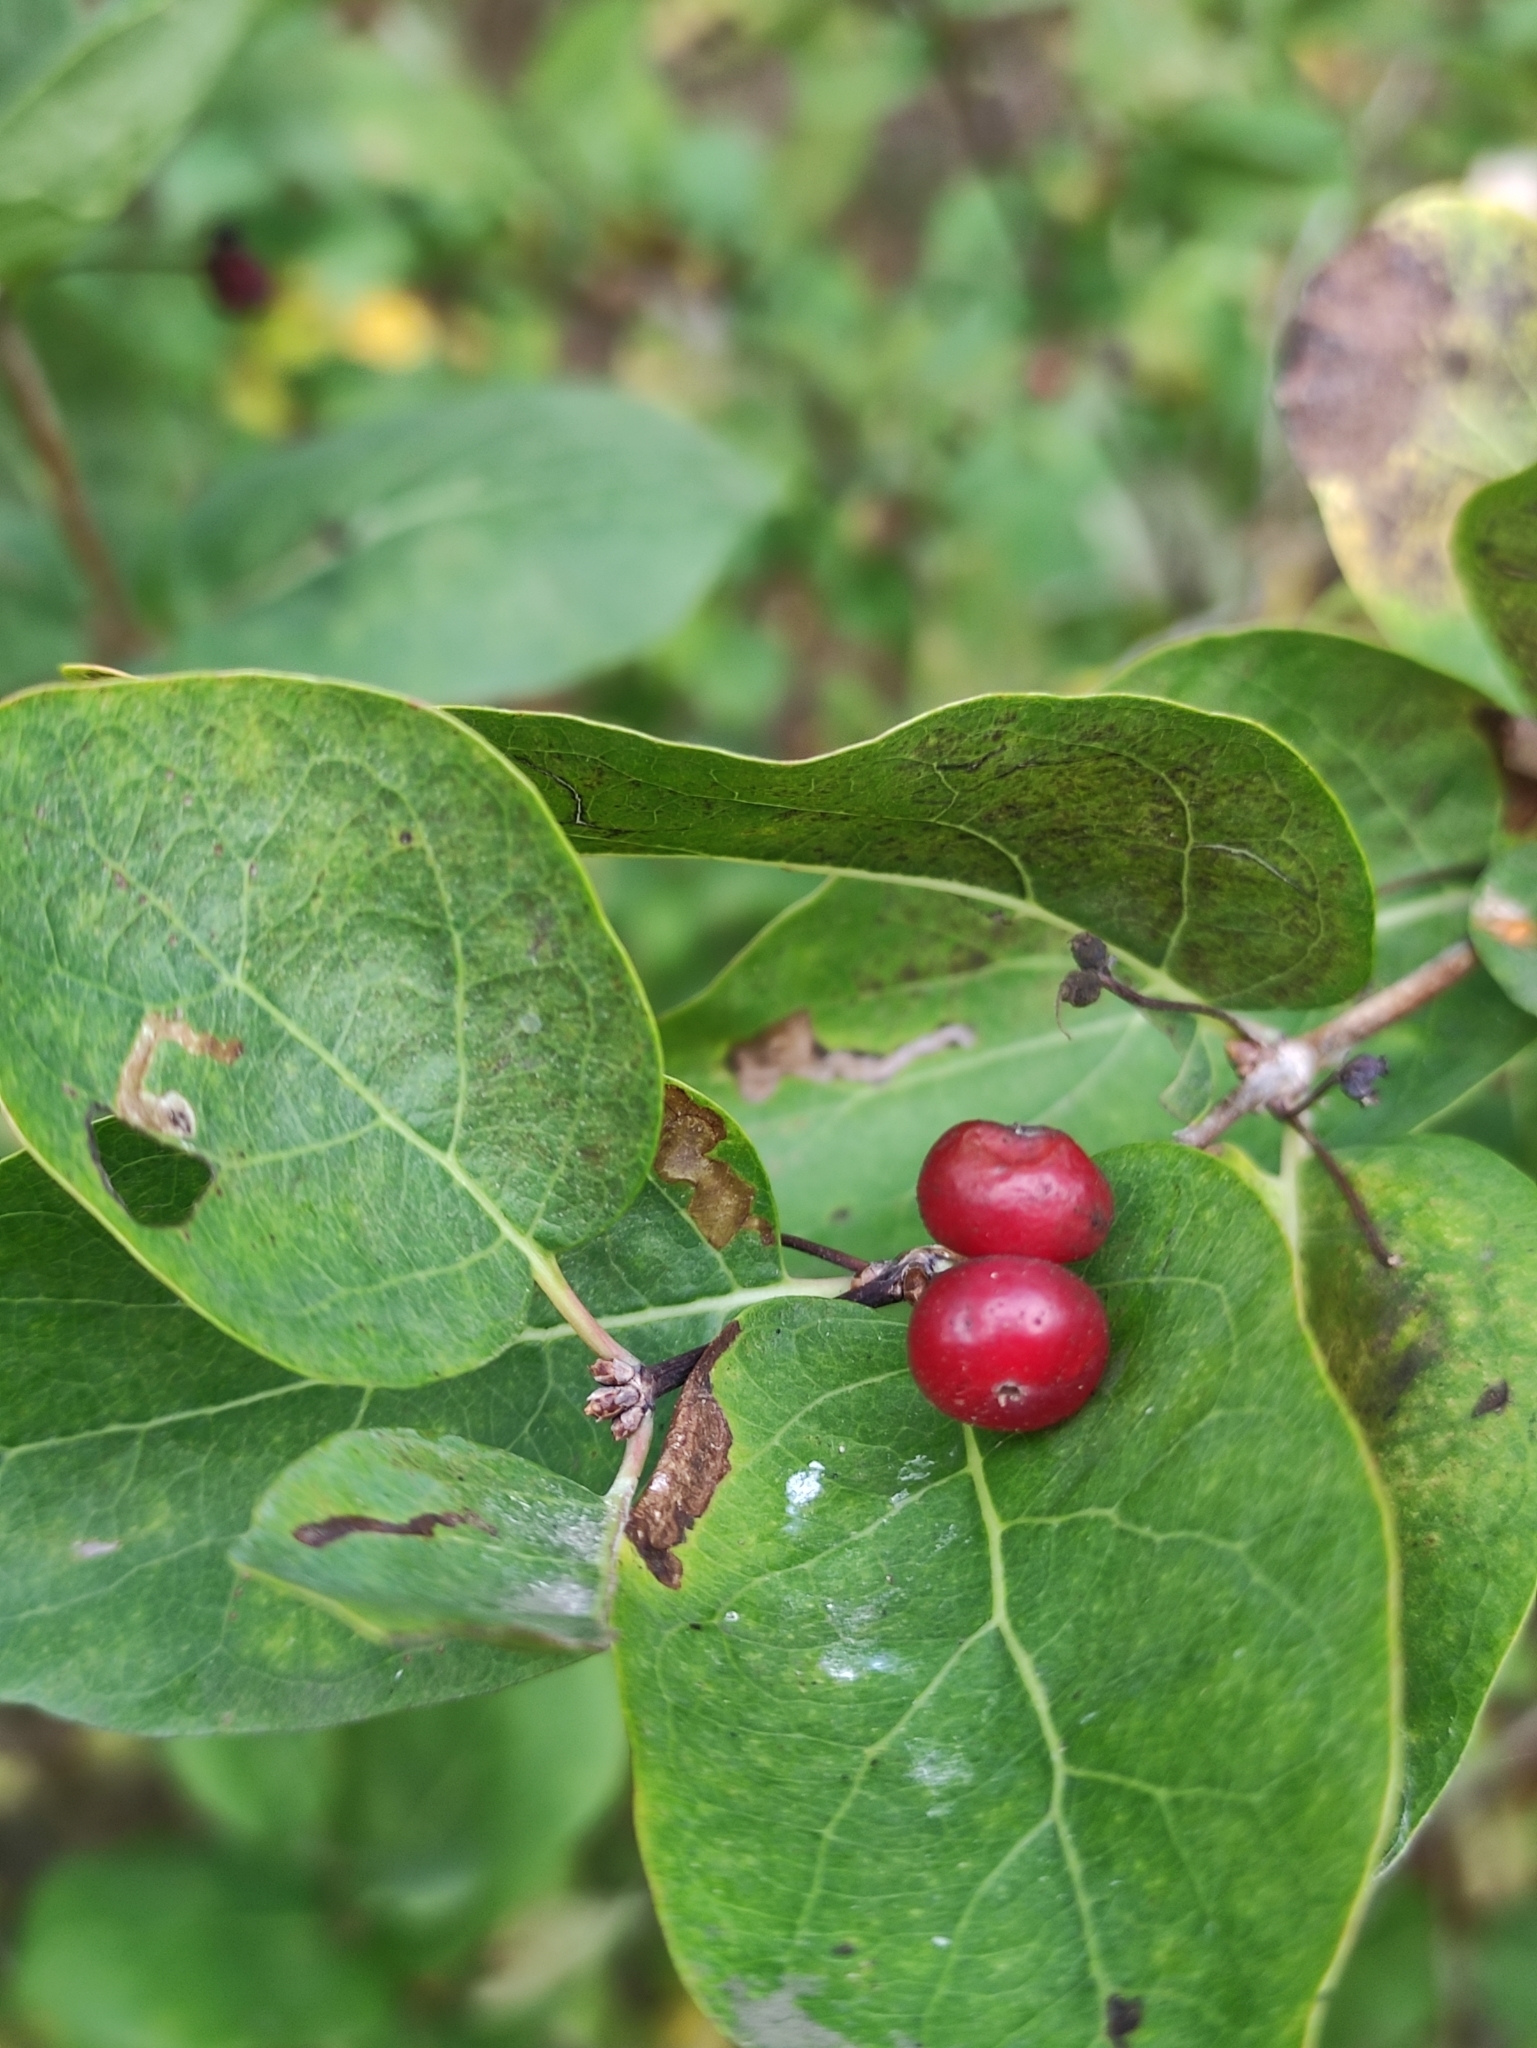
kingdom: Plantae
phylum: Tracheophyta
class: Magnoliopsida
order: Dipsacales
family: Caprifoliaceae
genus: Lonicera
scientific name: Lonicera xylosteum
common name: Fly honeysuckle
